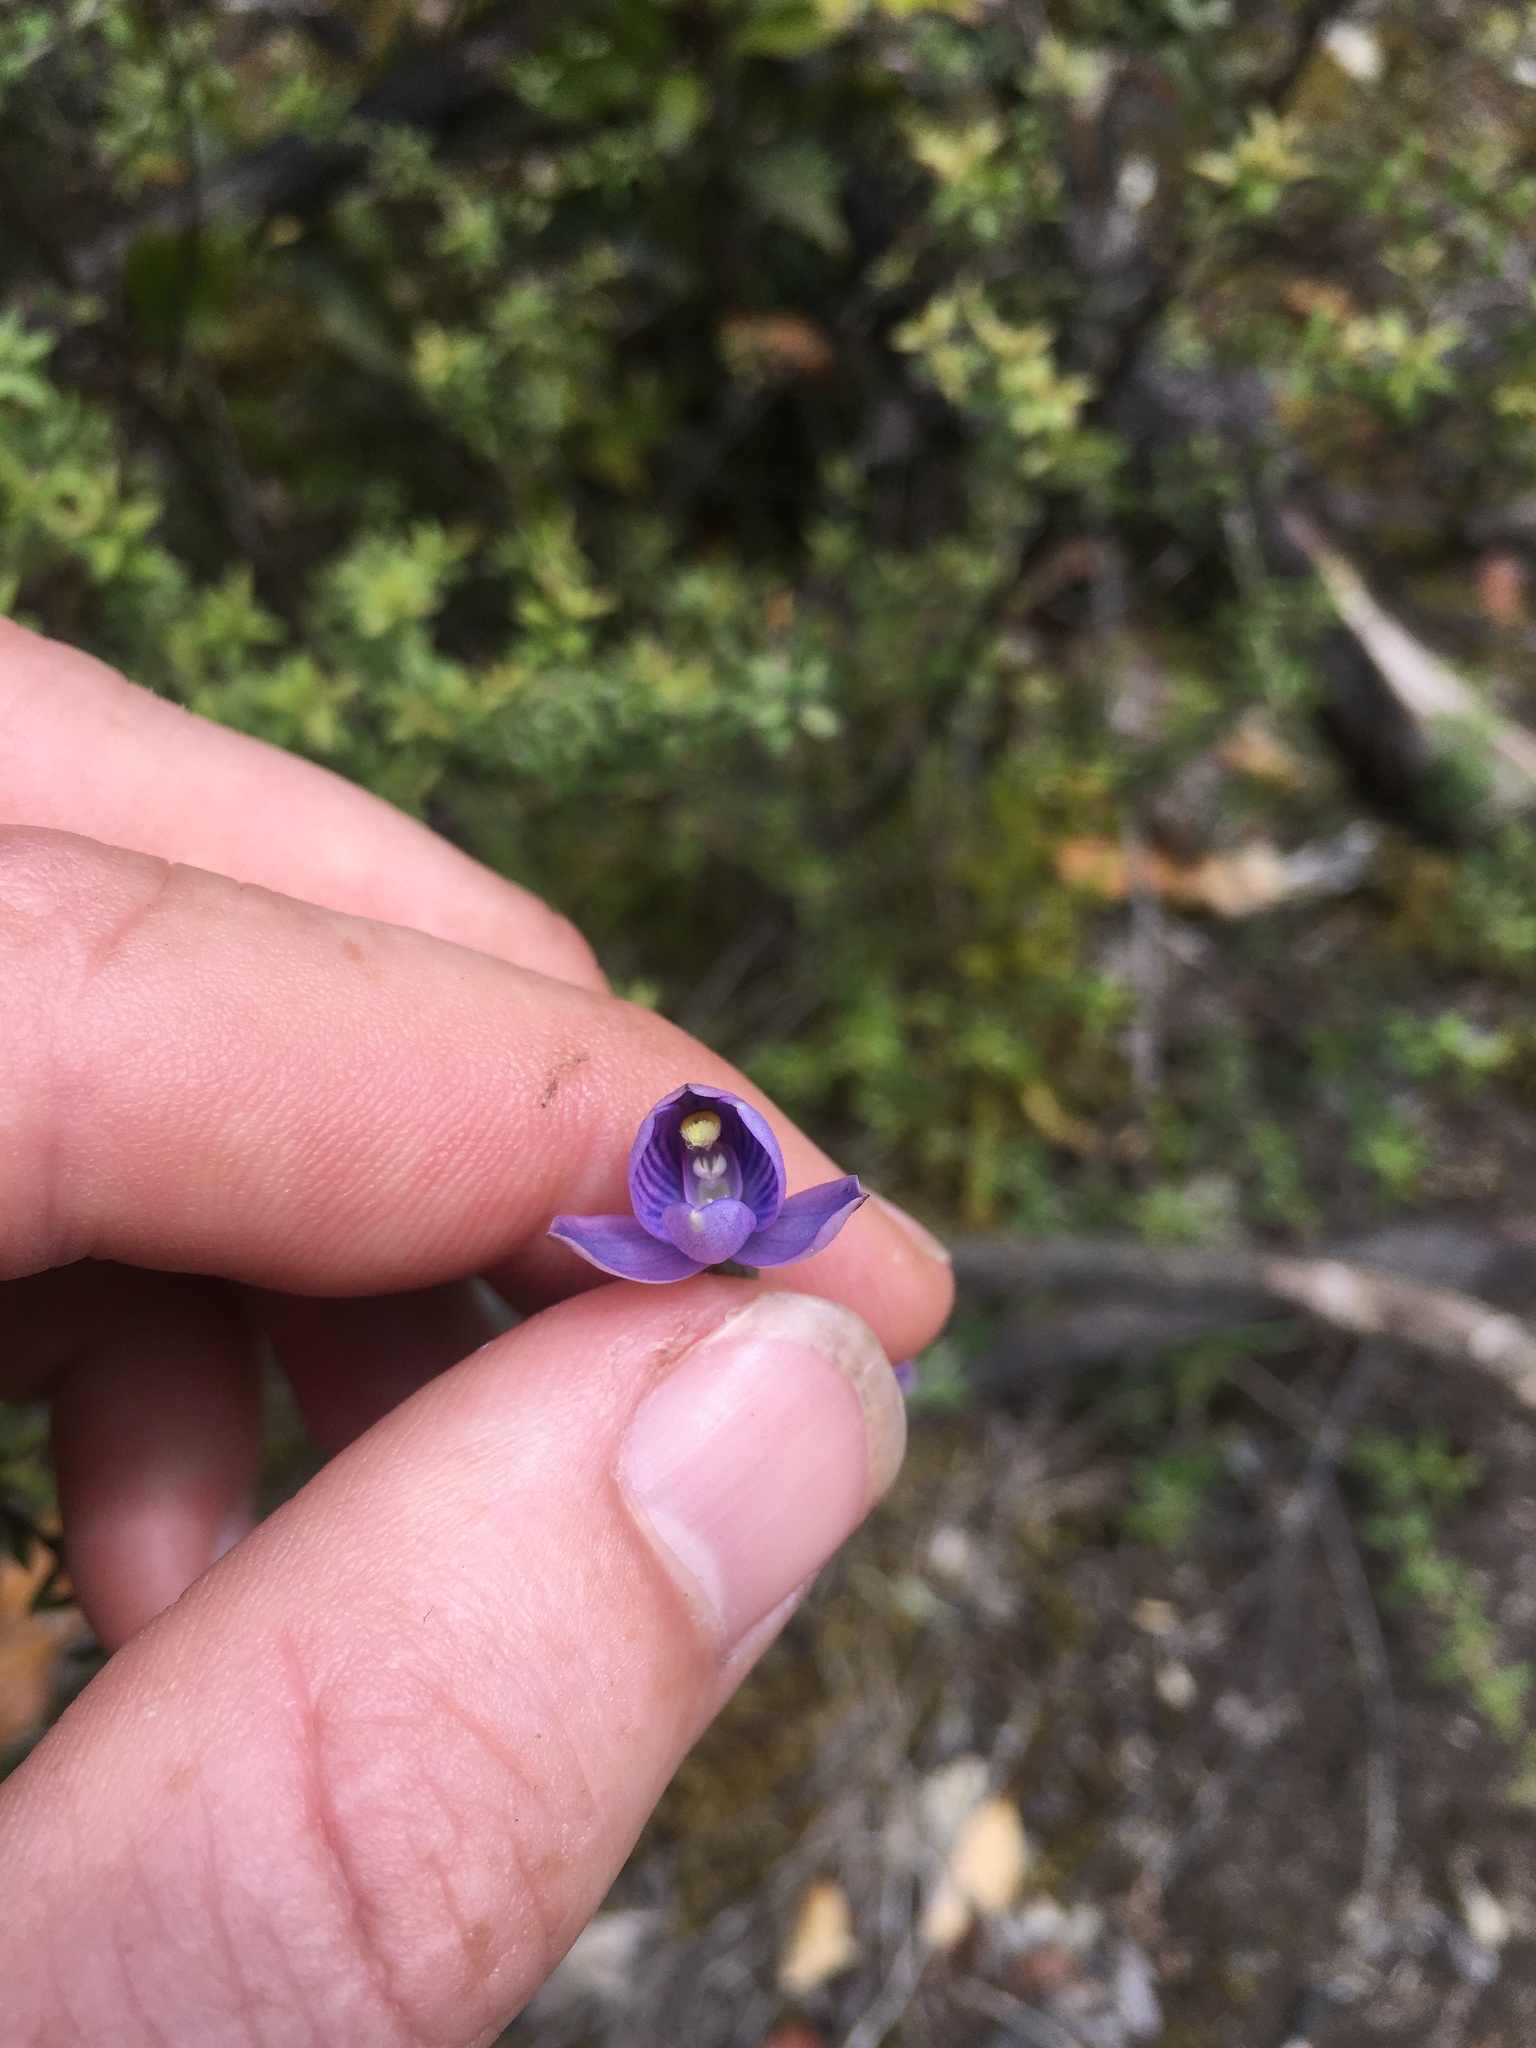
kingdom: Plantae
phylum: Tracheophyta
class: Liliopsida
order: Asparagales
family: Orchidaceae
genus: Thelymitra
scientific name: Thelymitra dentata
